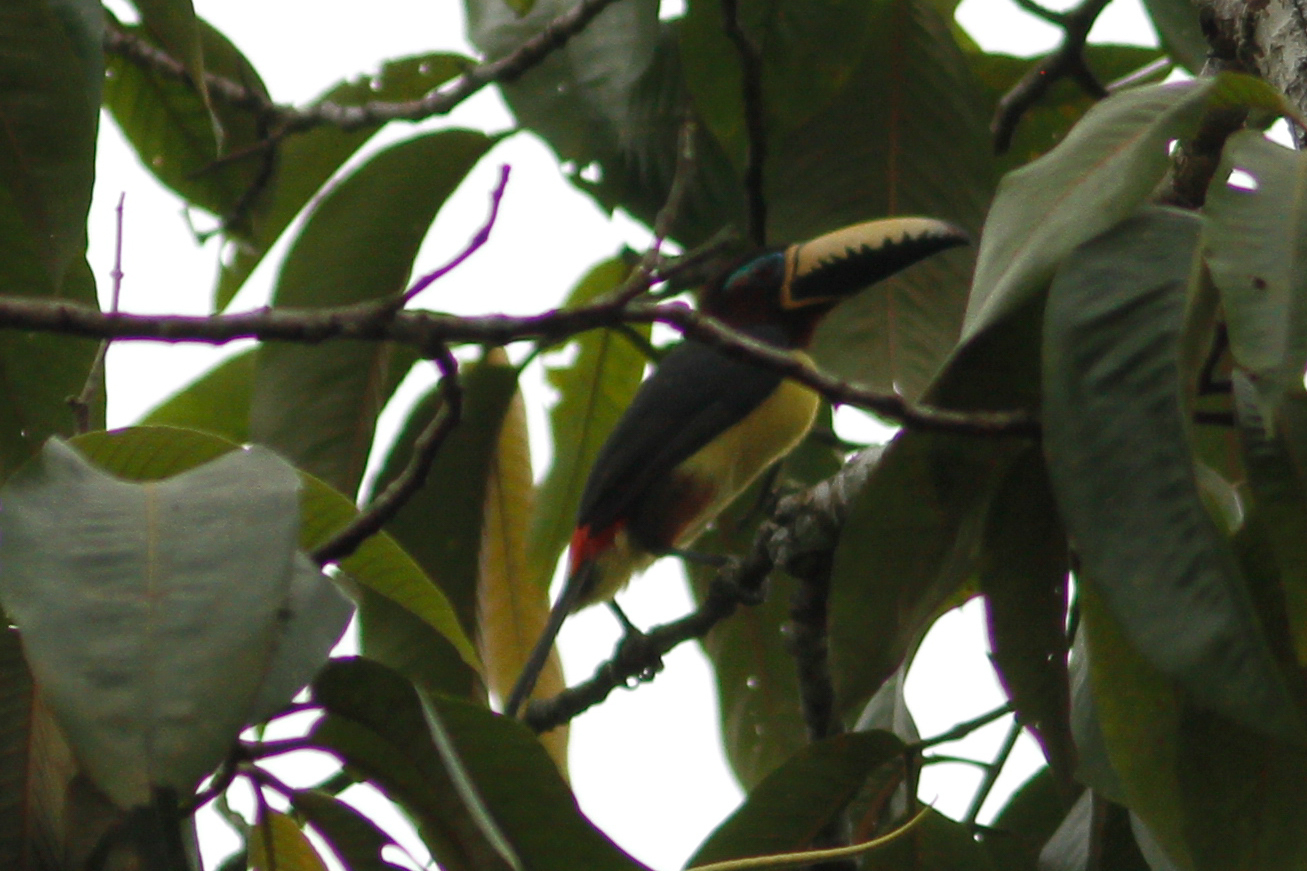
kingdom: Animalia
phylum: Chordata
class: Aves
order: Piciformes
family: Ramphastidae
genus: Pteroglossus
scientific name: Pteroglossus inscriptus
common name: Lettered aracari
